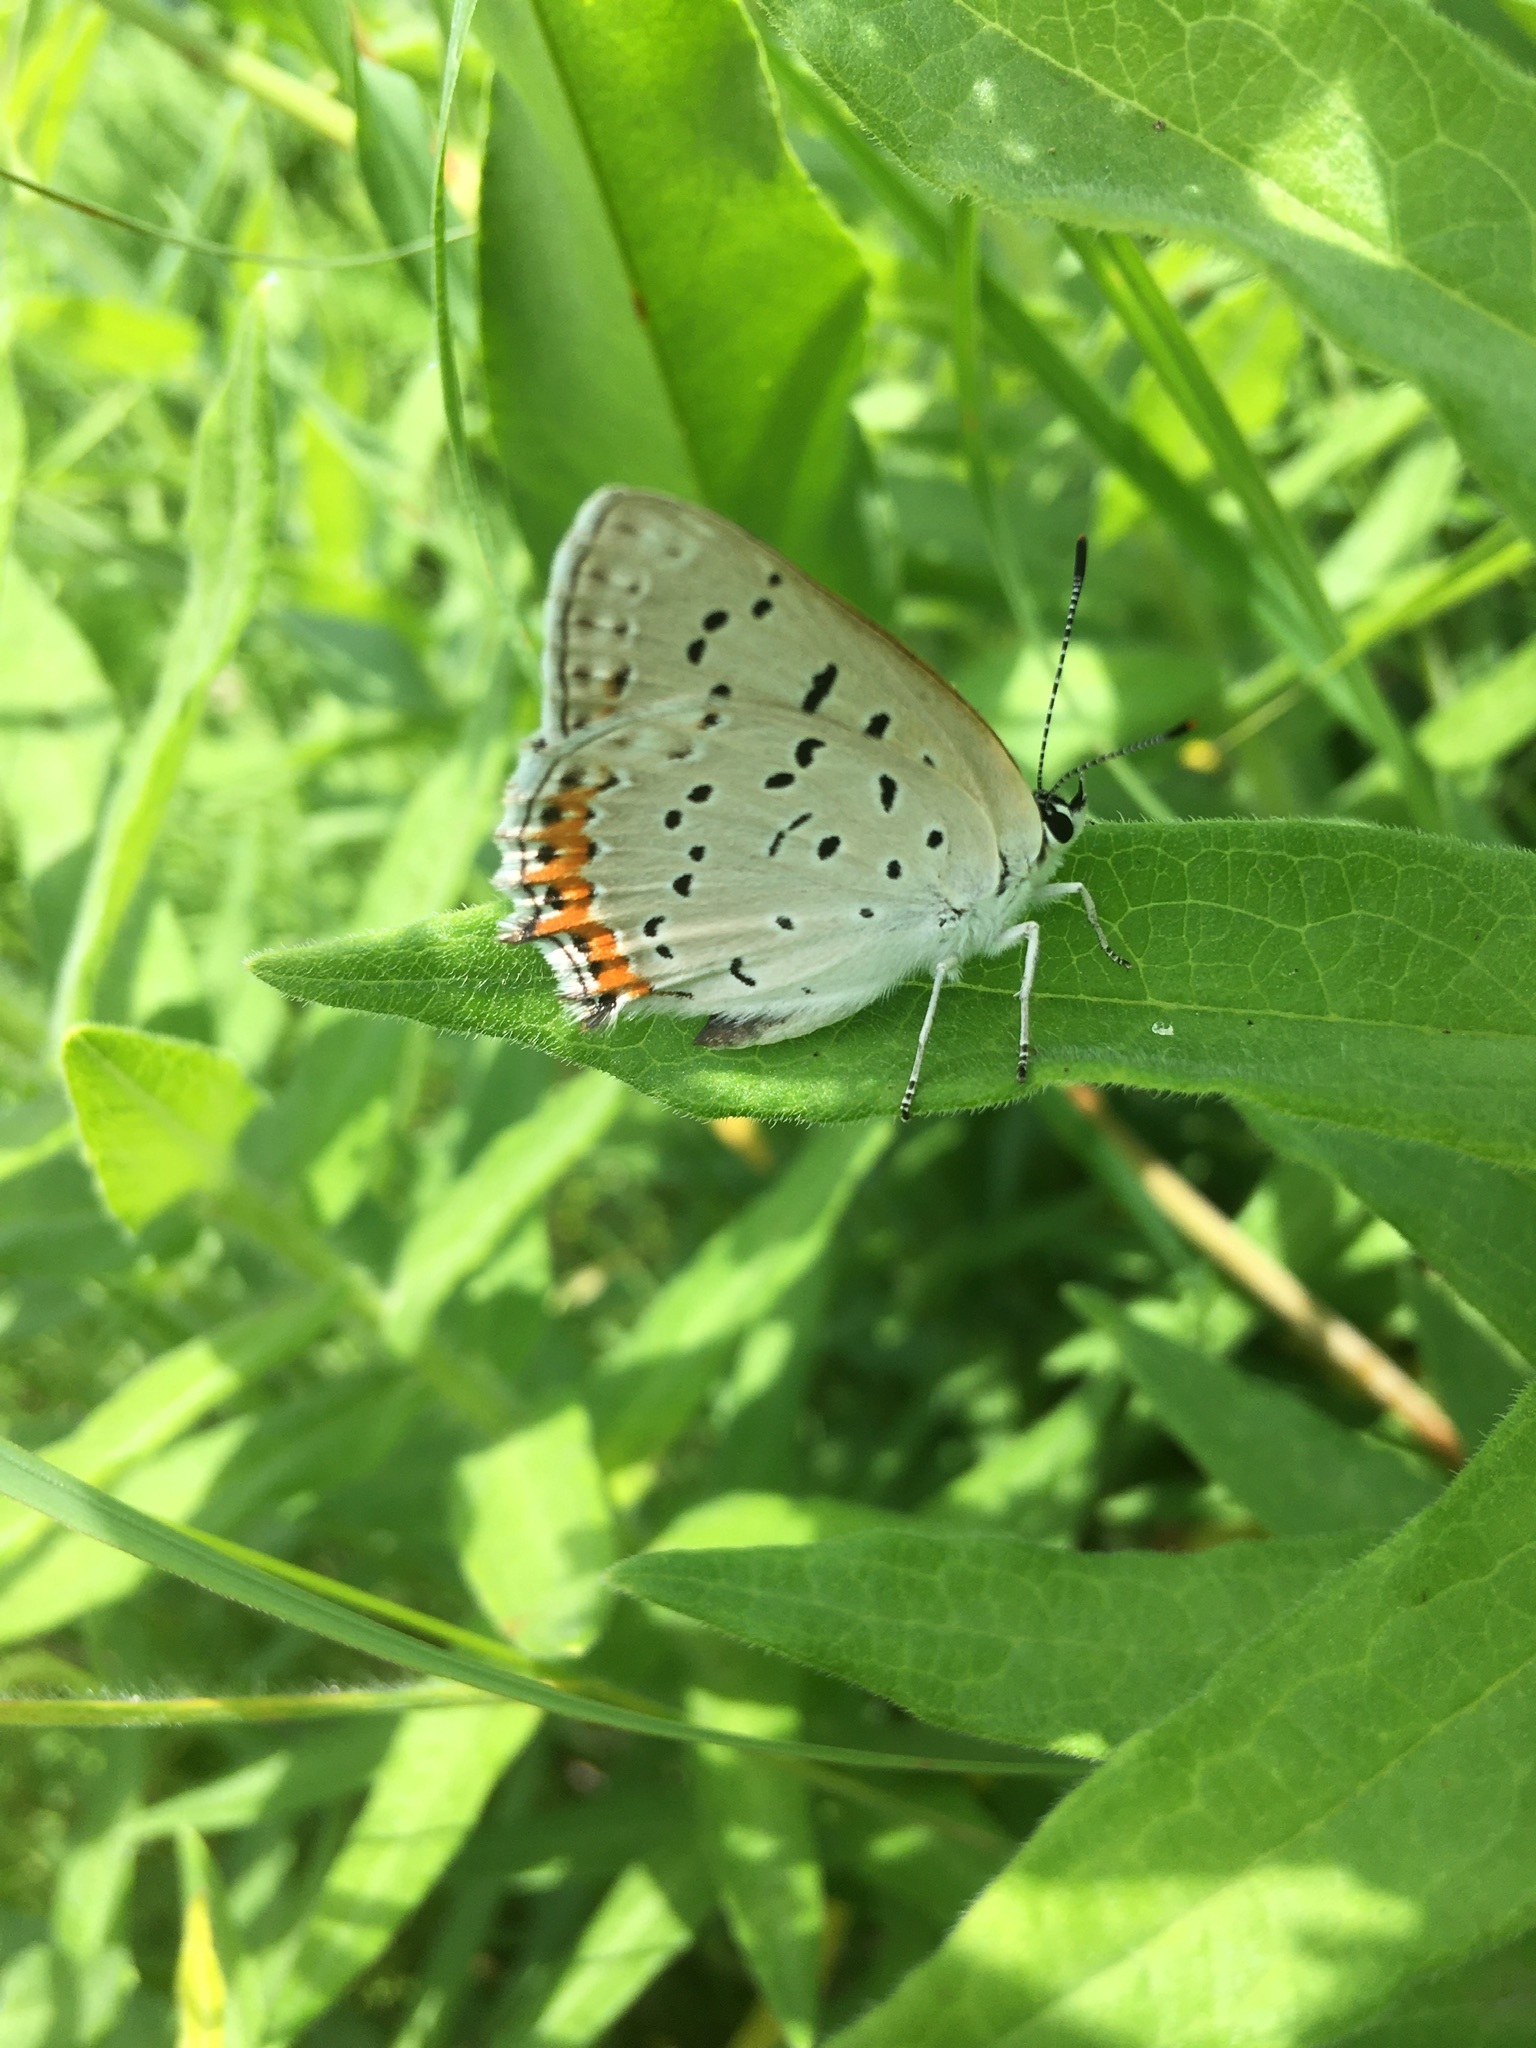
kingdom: Animalia
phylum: Arthropoda
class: Insecta
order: Lepidoptera
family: Lycaenidae
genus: Tharsalea
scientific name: Tharsalea dione
